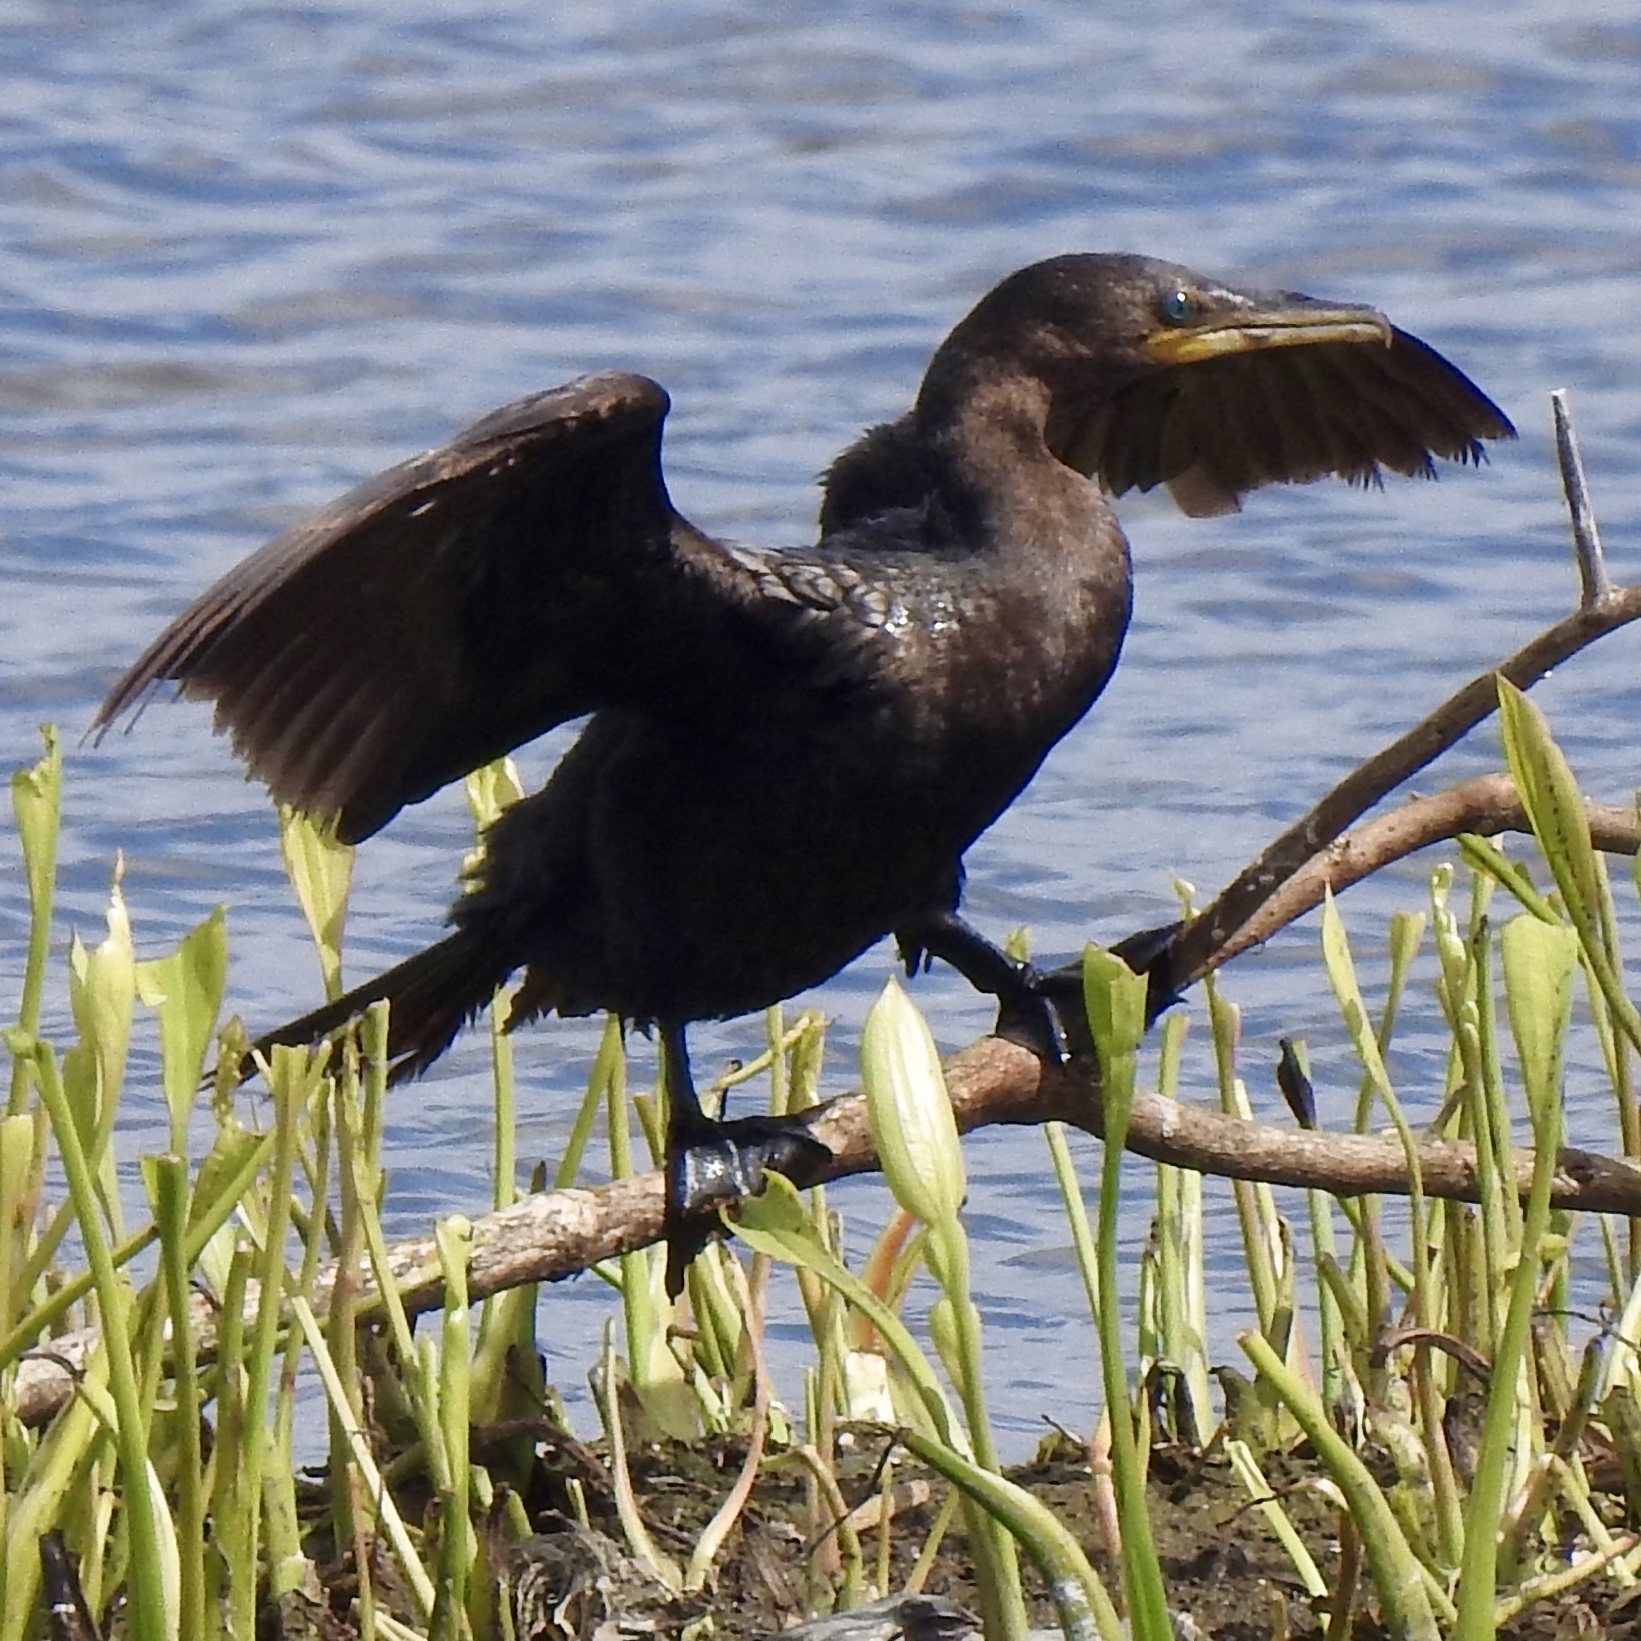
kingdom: Animalia
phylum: Chordata
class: Aves
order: Suliformes
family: Phalacrocoracidae
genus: Phalacrocorax
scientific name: Phalacrocorax brasilianus
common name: Neotropic cormorant
